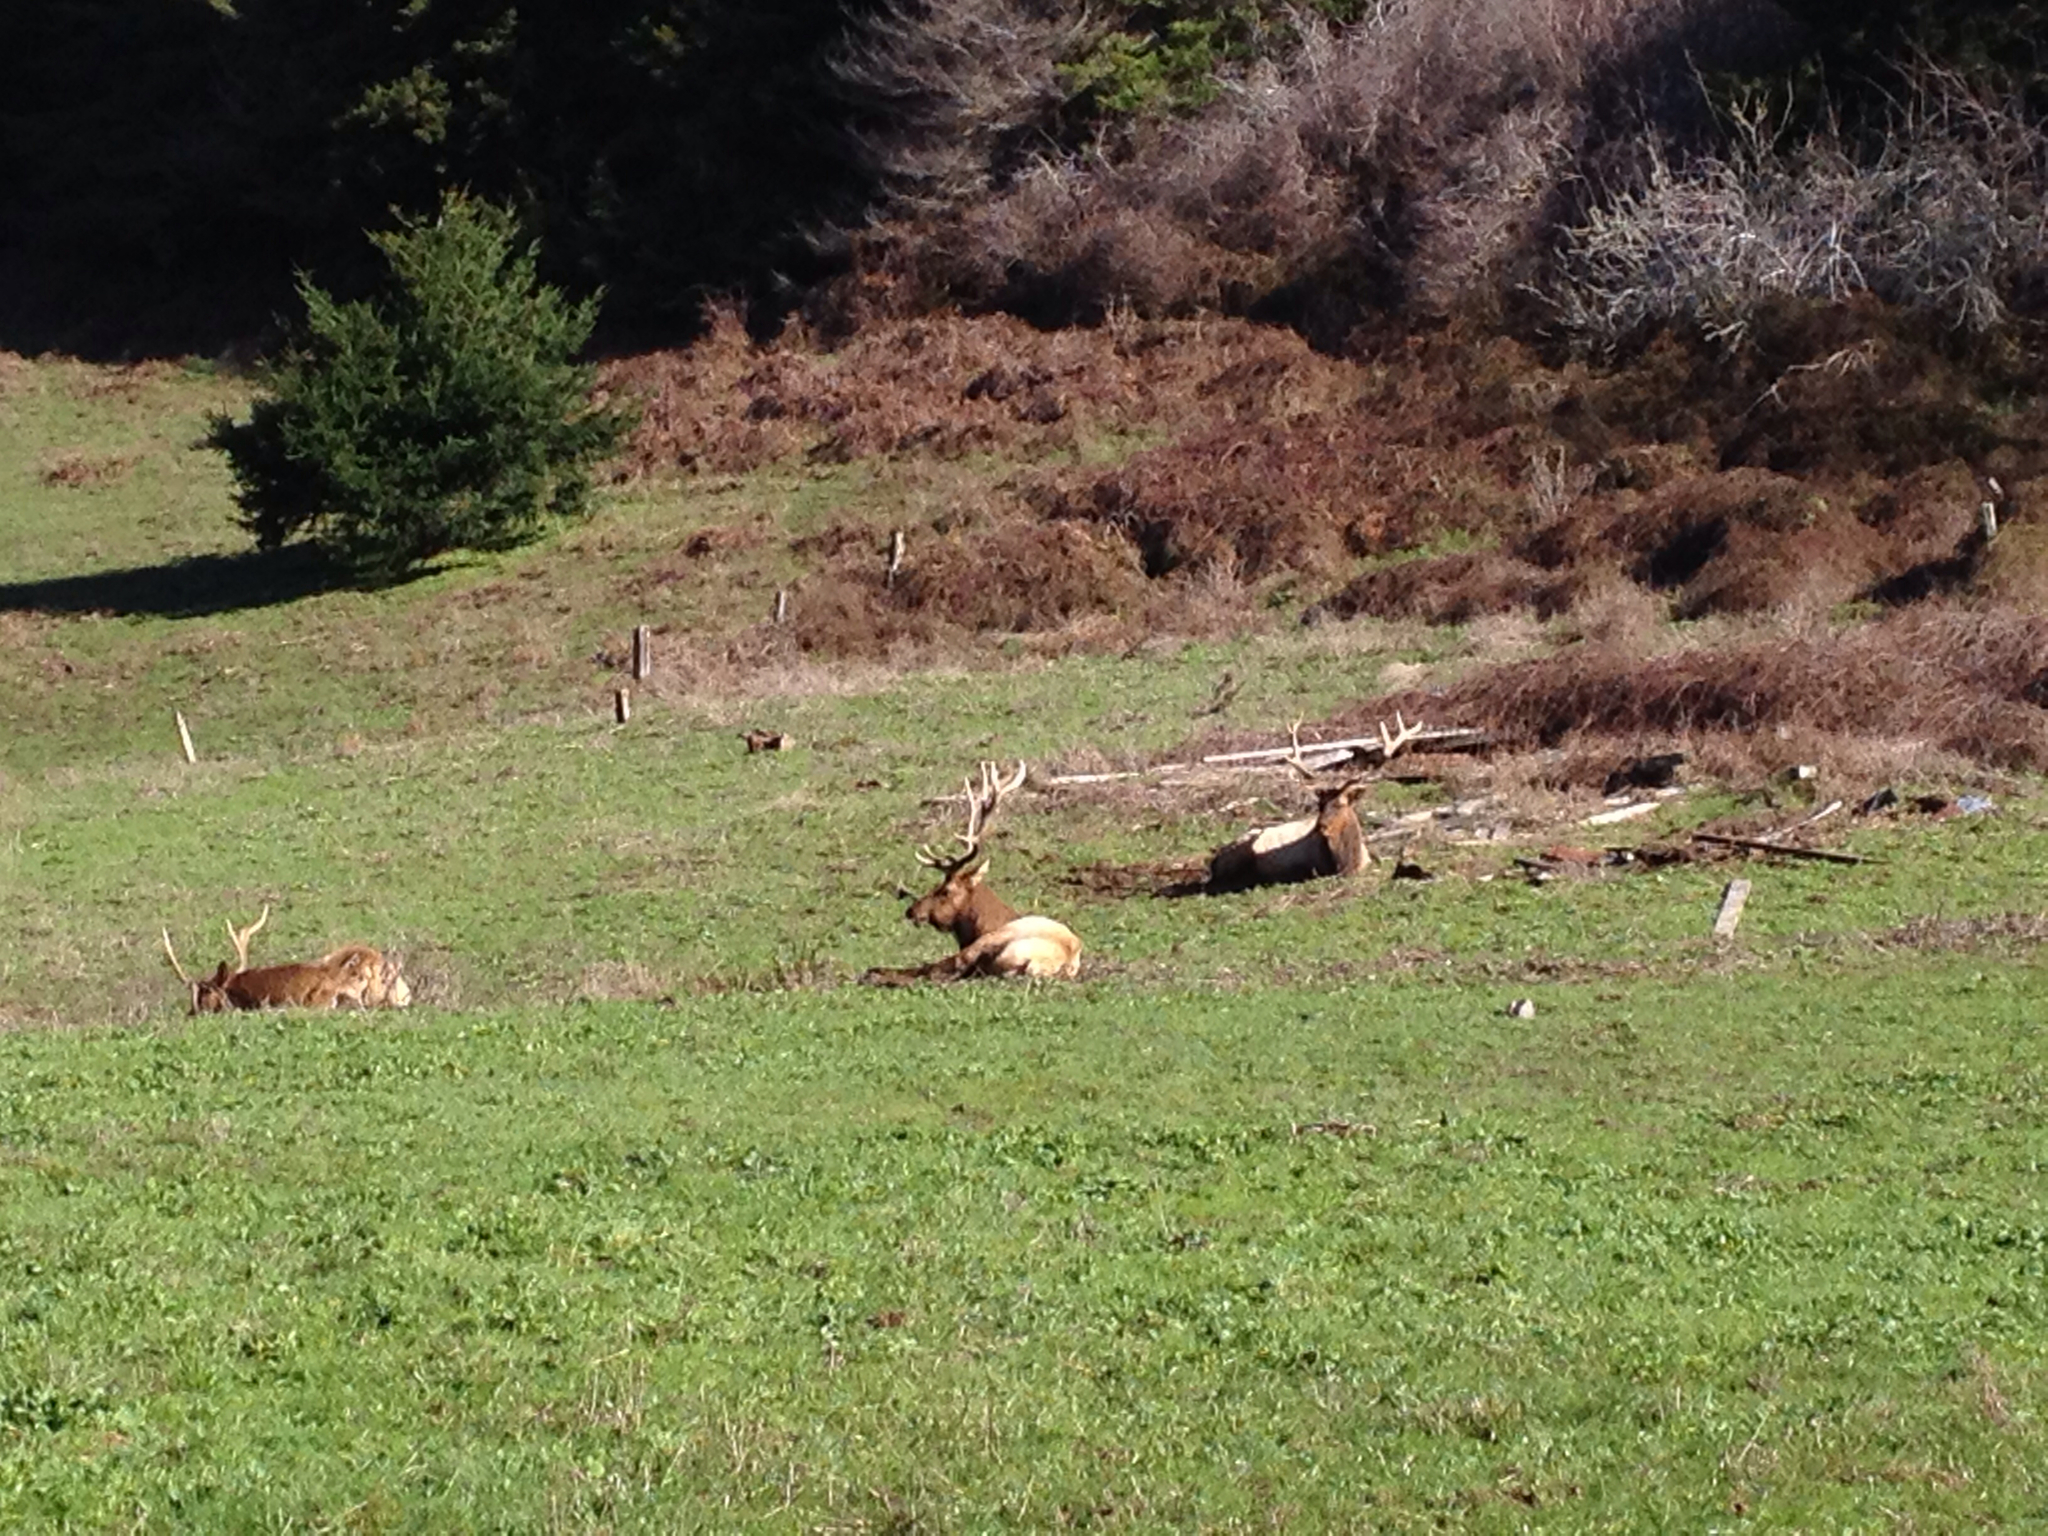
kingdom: Animalia
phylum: Chordata
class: Mammalia
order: Artiodactyla
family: Cervidae
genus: Cervus
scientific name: Cervus elaphus
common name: Red deer
